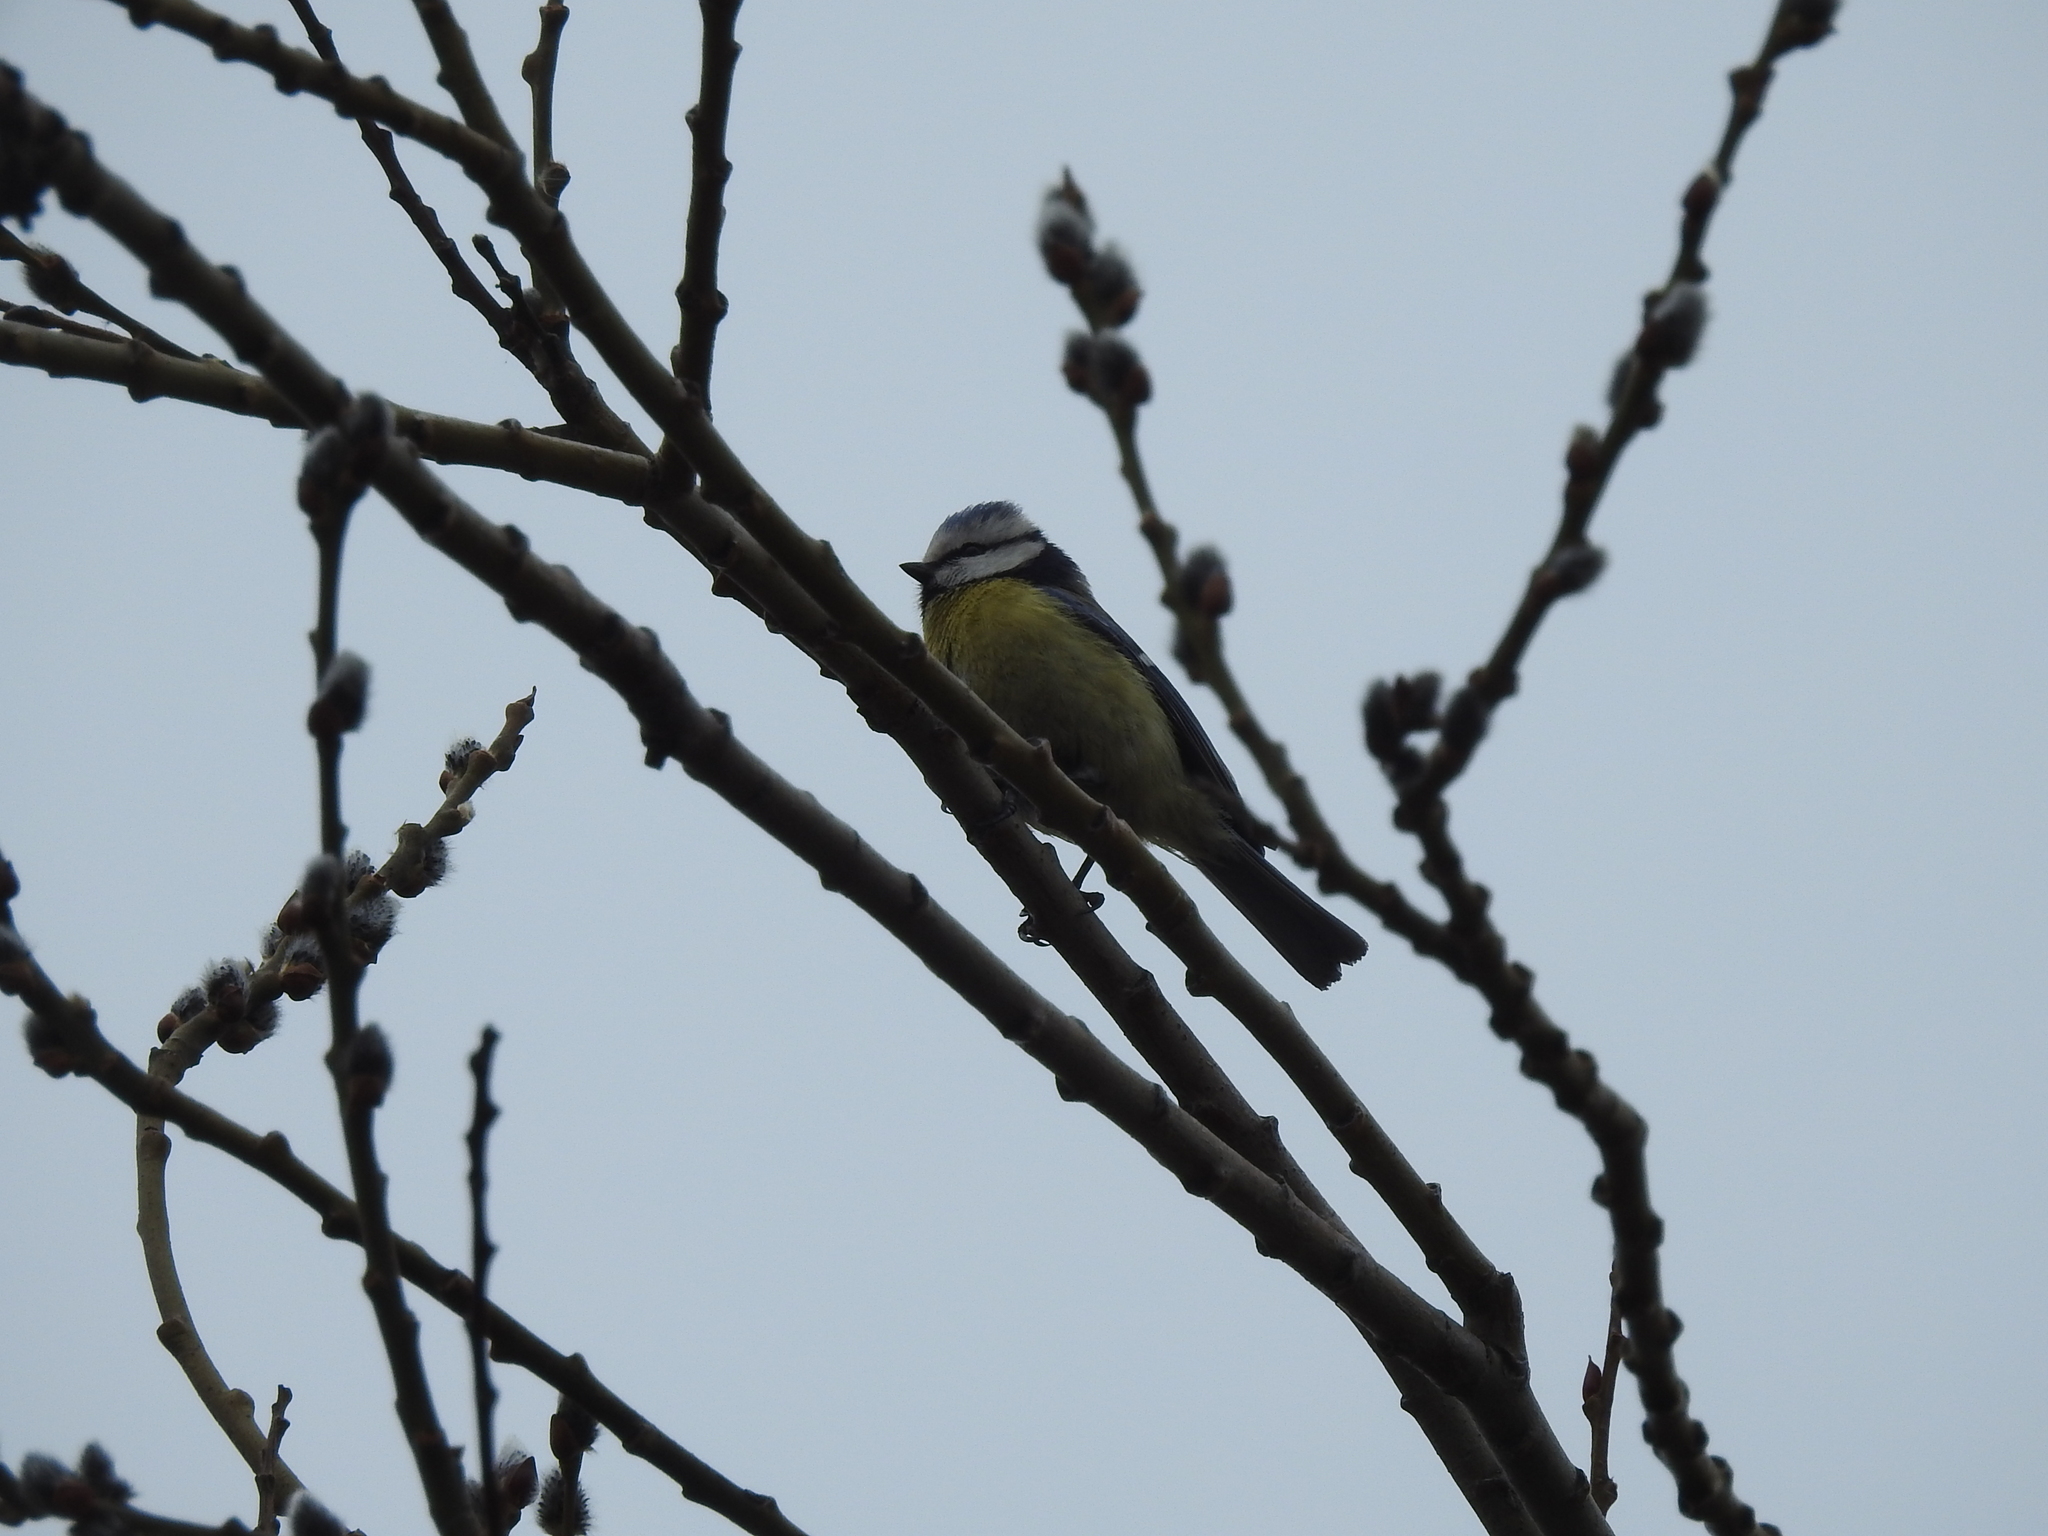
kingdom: Animalia
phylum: Chordata
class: Aves
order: Passeriformes
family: Paridae
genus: Cyanistes
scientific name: Cyanistes caeruleus
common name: Eurasian blue tit
